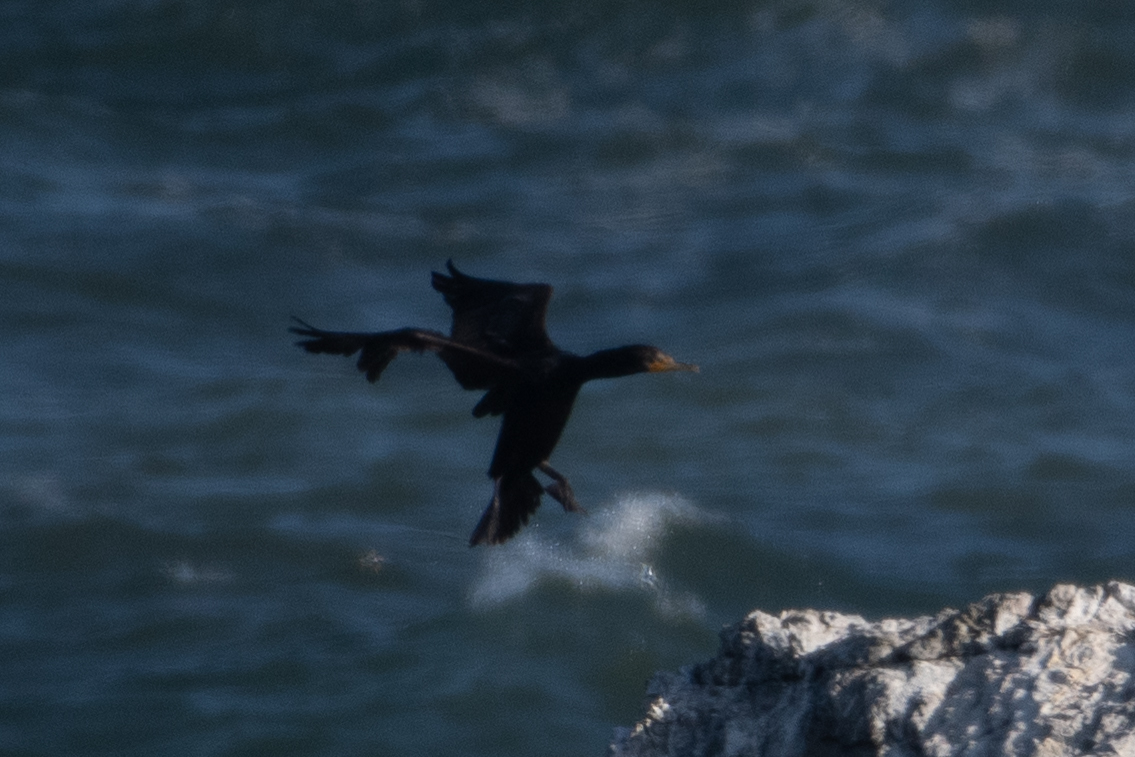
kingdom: Animalia
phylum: Chordata
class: Aves
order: Suliformes
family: Phalacrocoracidae
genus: Phalacrocorax
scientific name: Phalacrocorax auritus
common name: Double-crested cormorant
